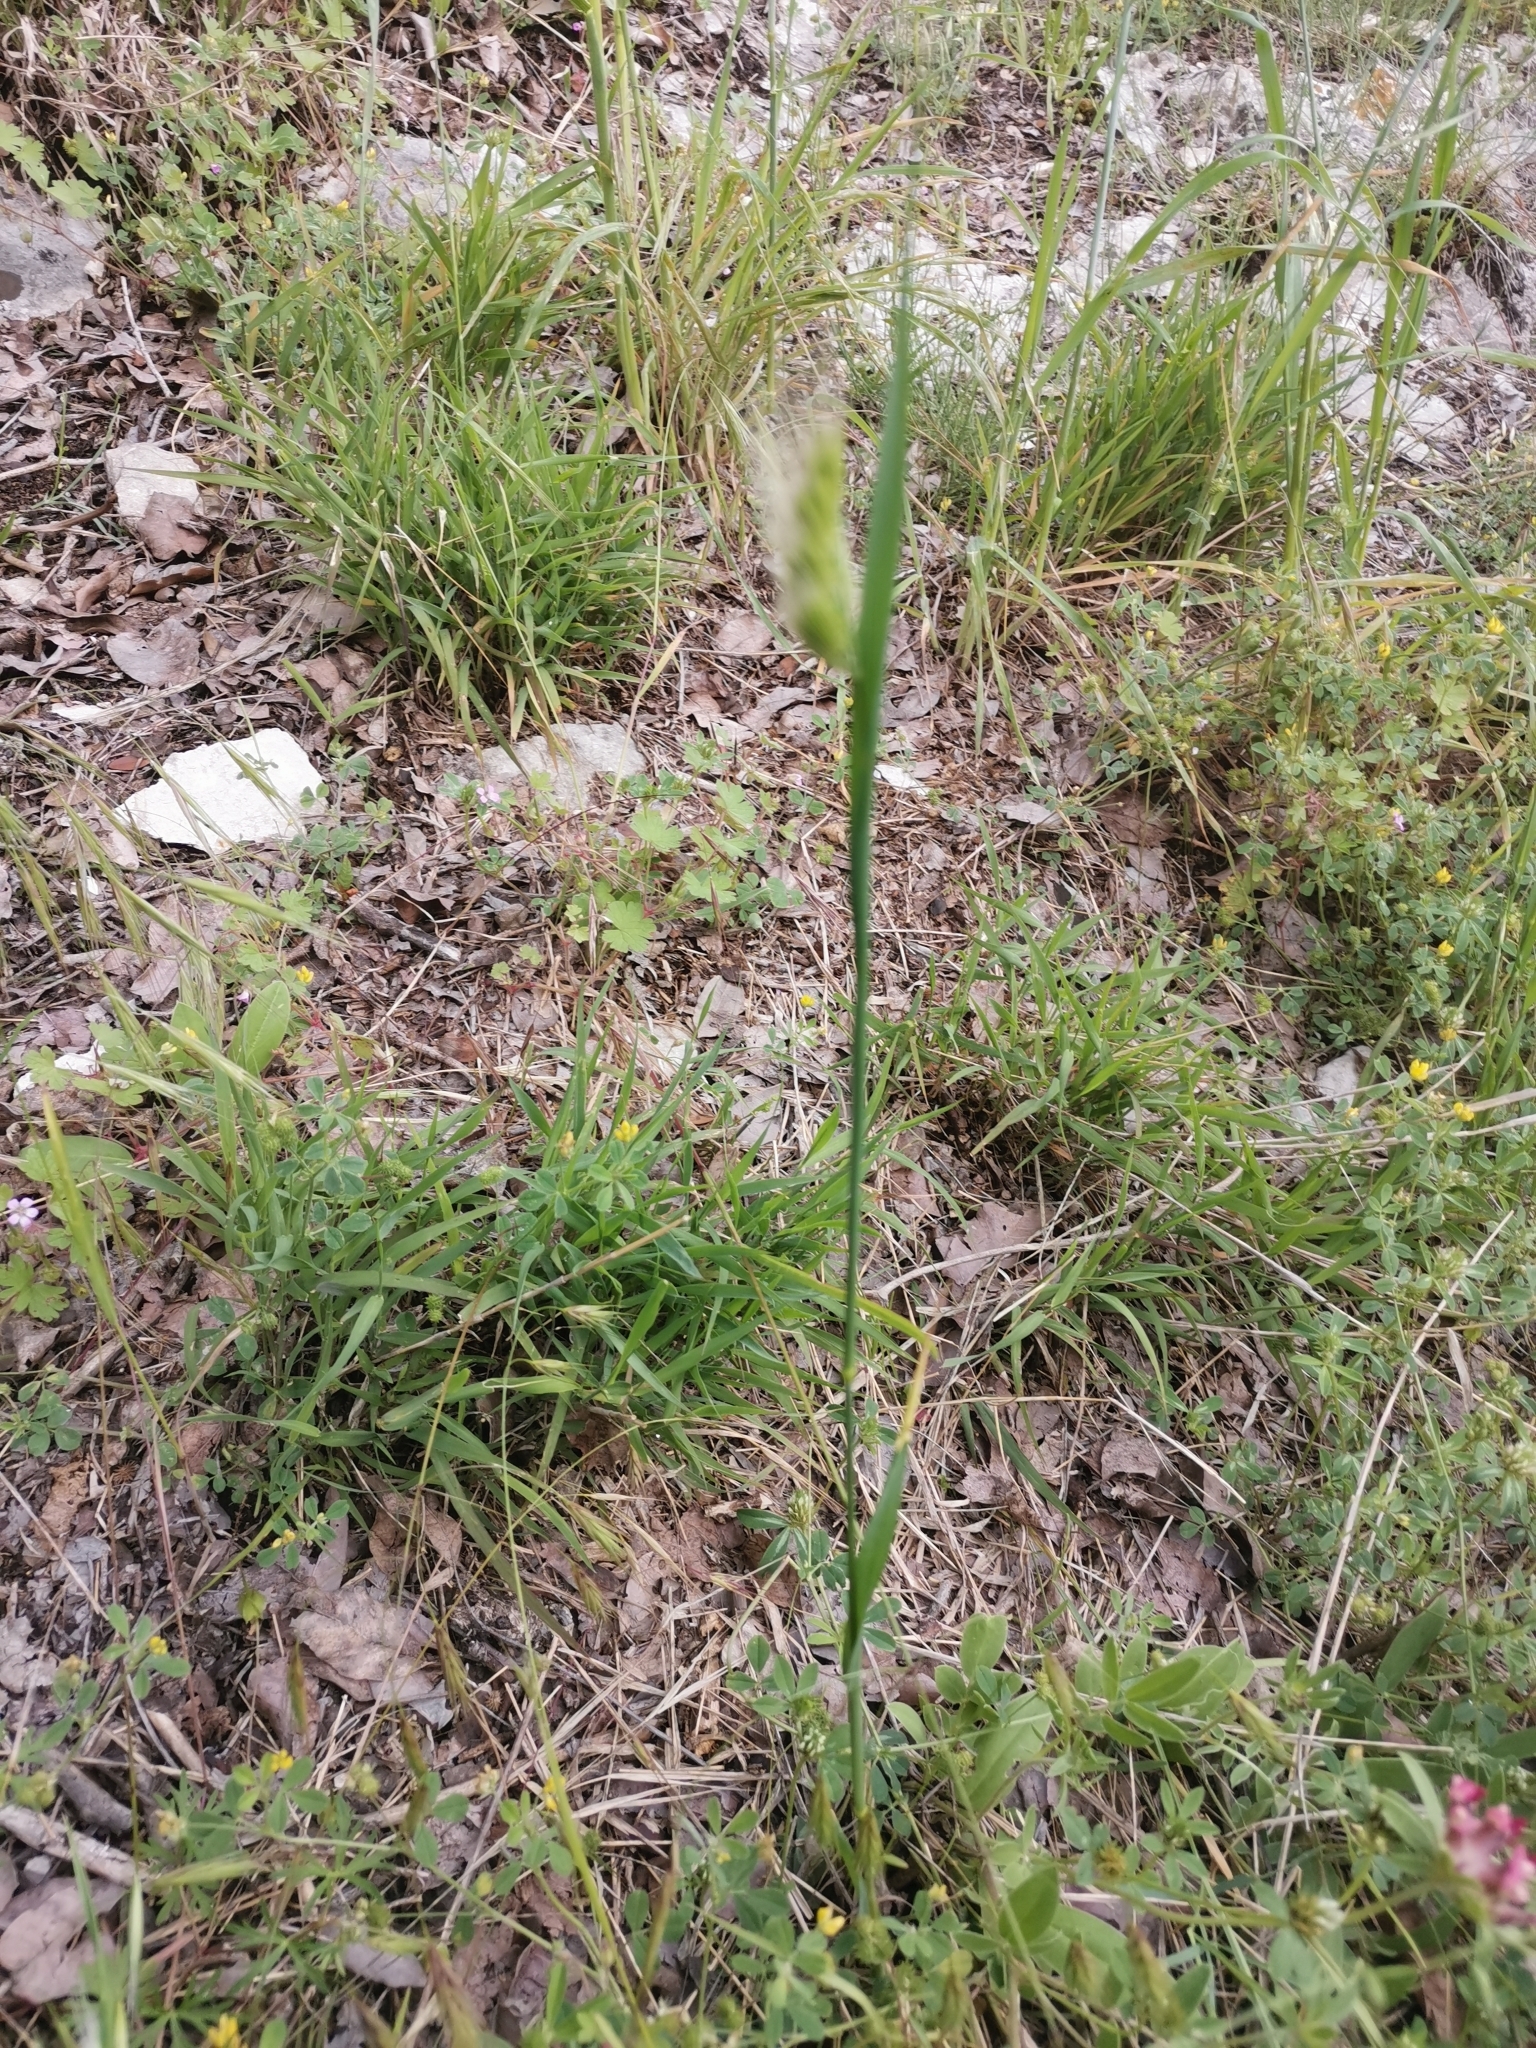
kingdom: Plantae
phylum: Tracheophyta
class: Liliopsida
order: Poales
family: Poaceae
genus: Cynosurus
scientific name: Cynosurus echinatus
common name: Rough dog's-tail
